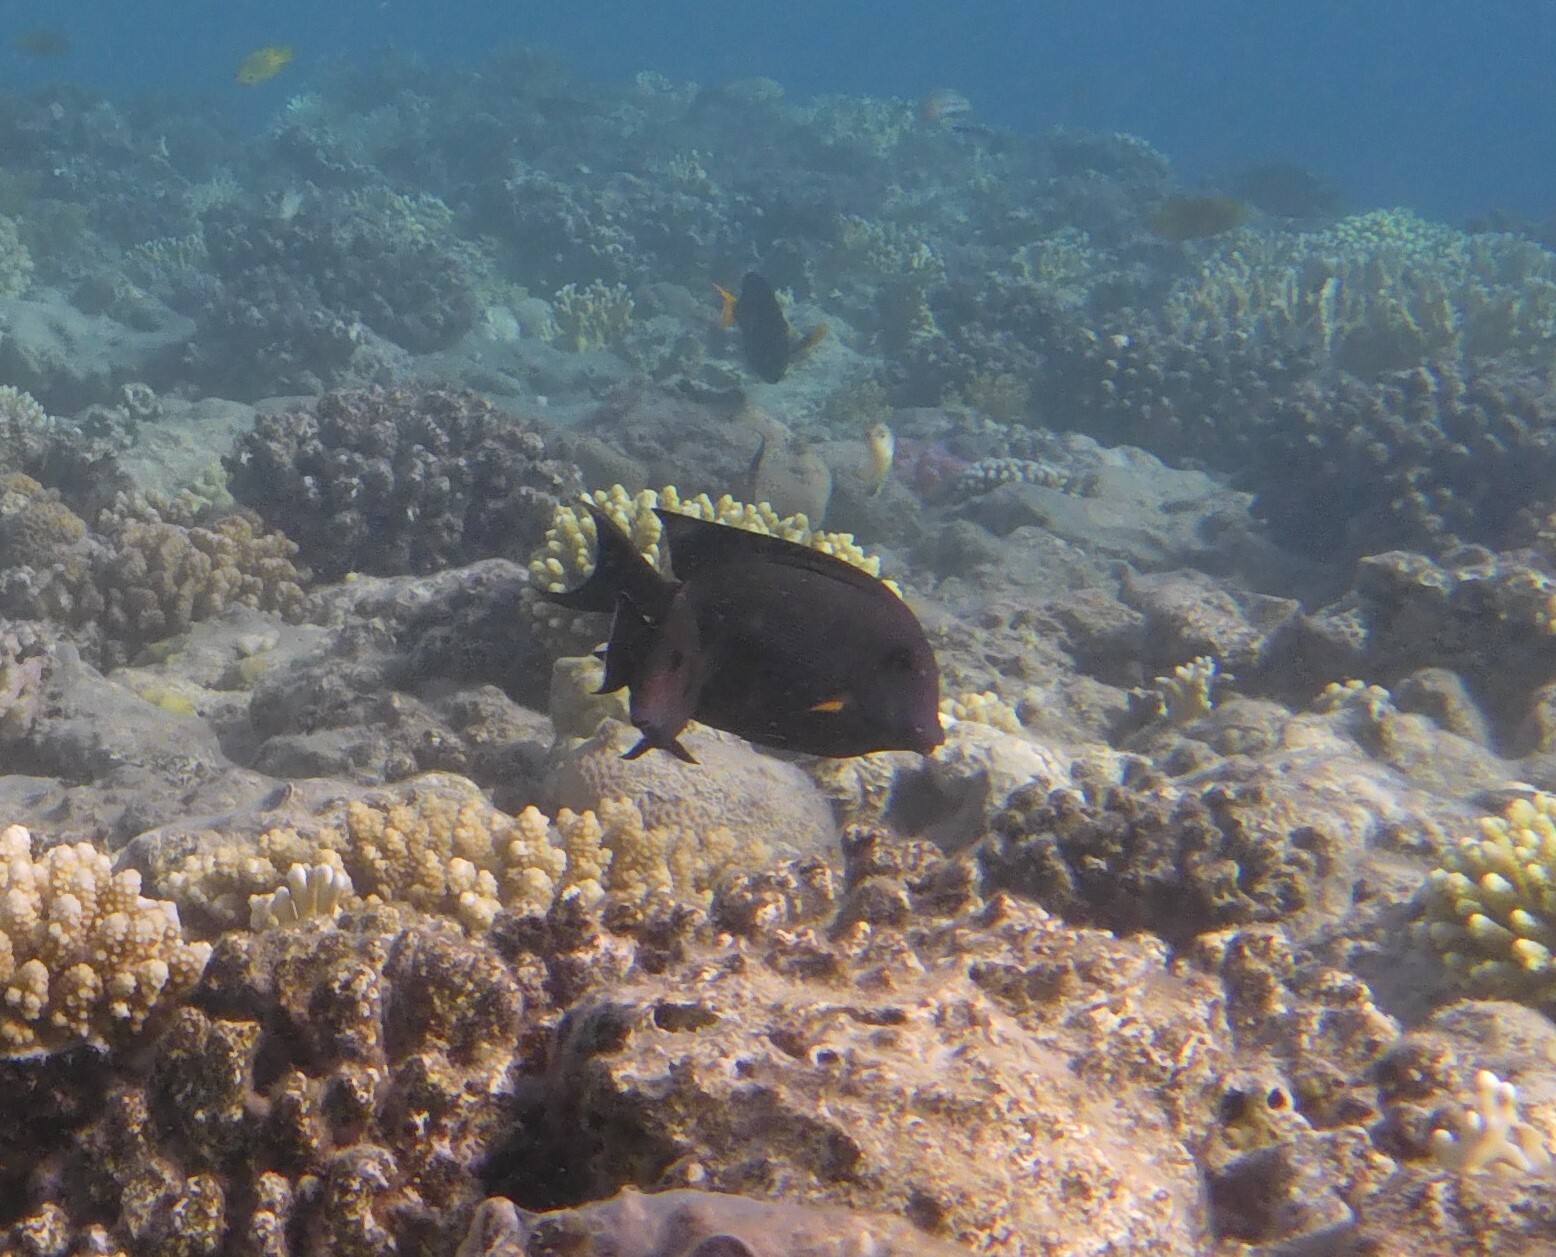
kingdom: Animalia
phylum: Chordata
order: Perciformes
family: Acanthuridae
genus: Ctenochaetus
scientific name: Ctenochaetus striatus
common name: Bristle-toothed surgeonfish
